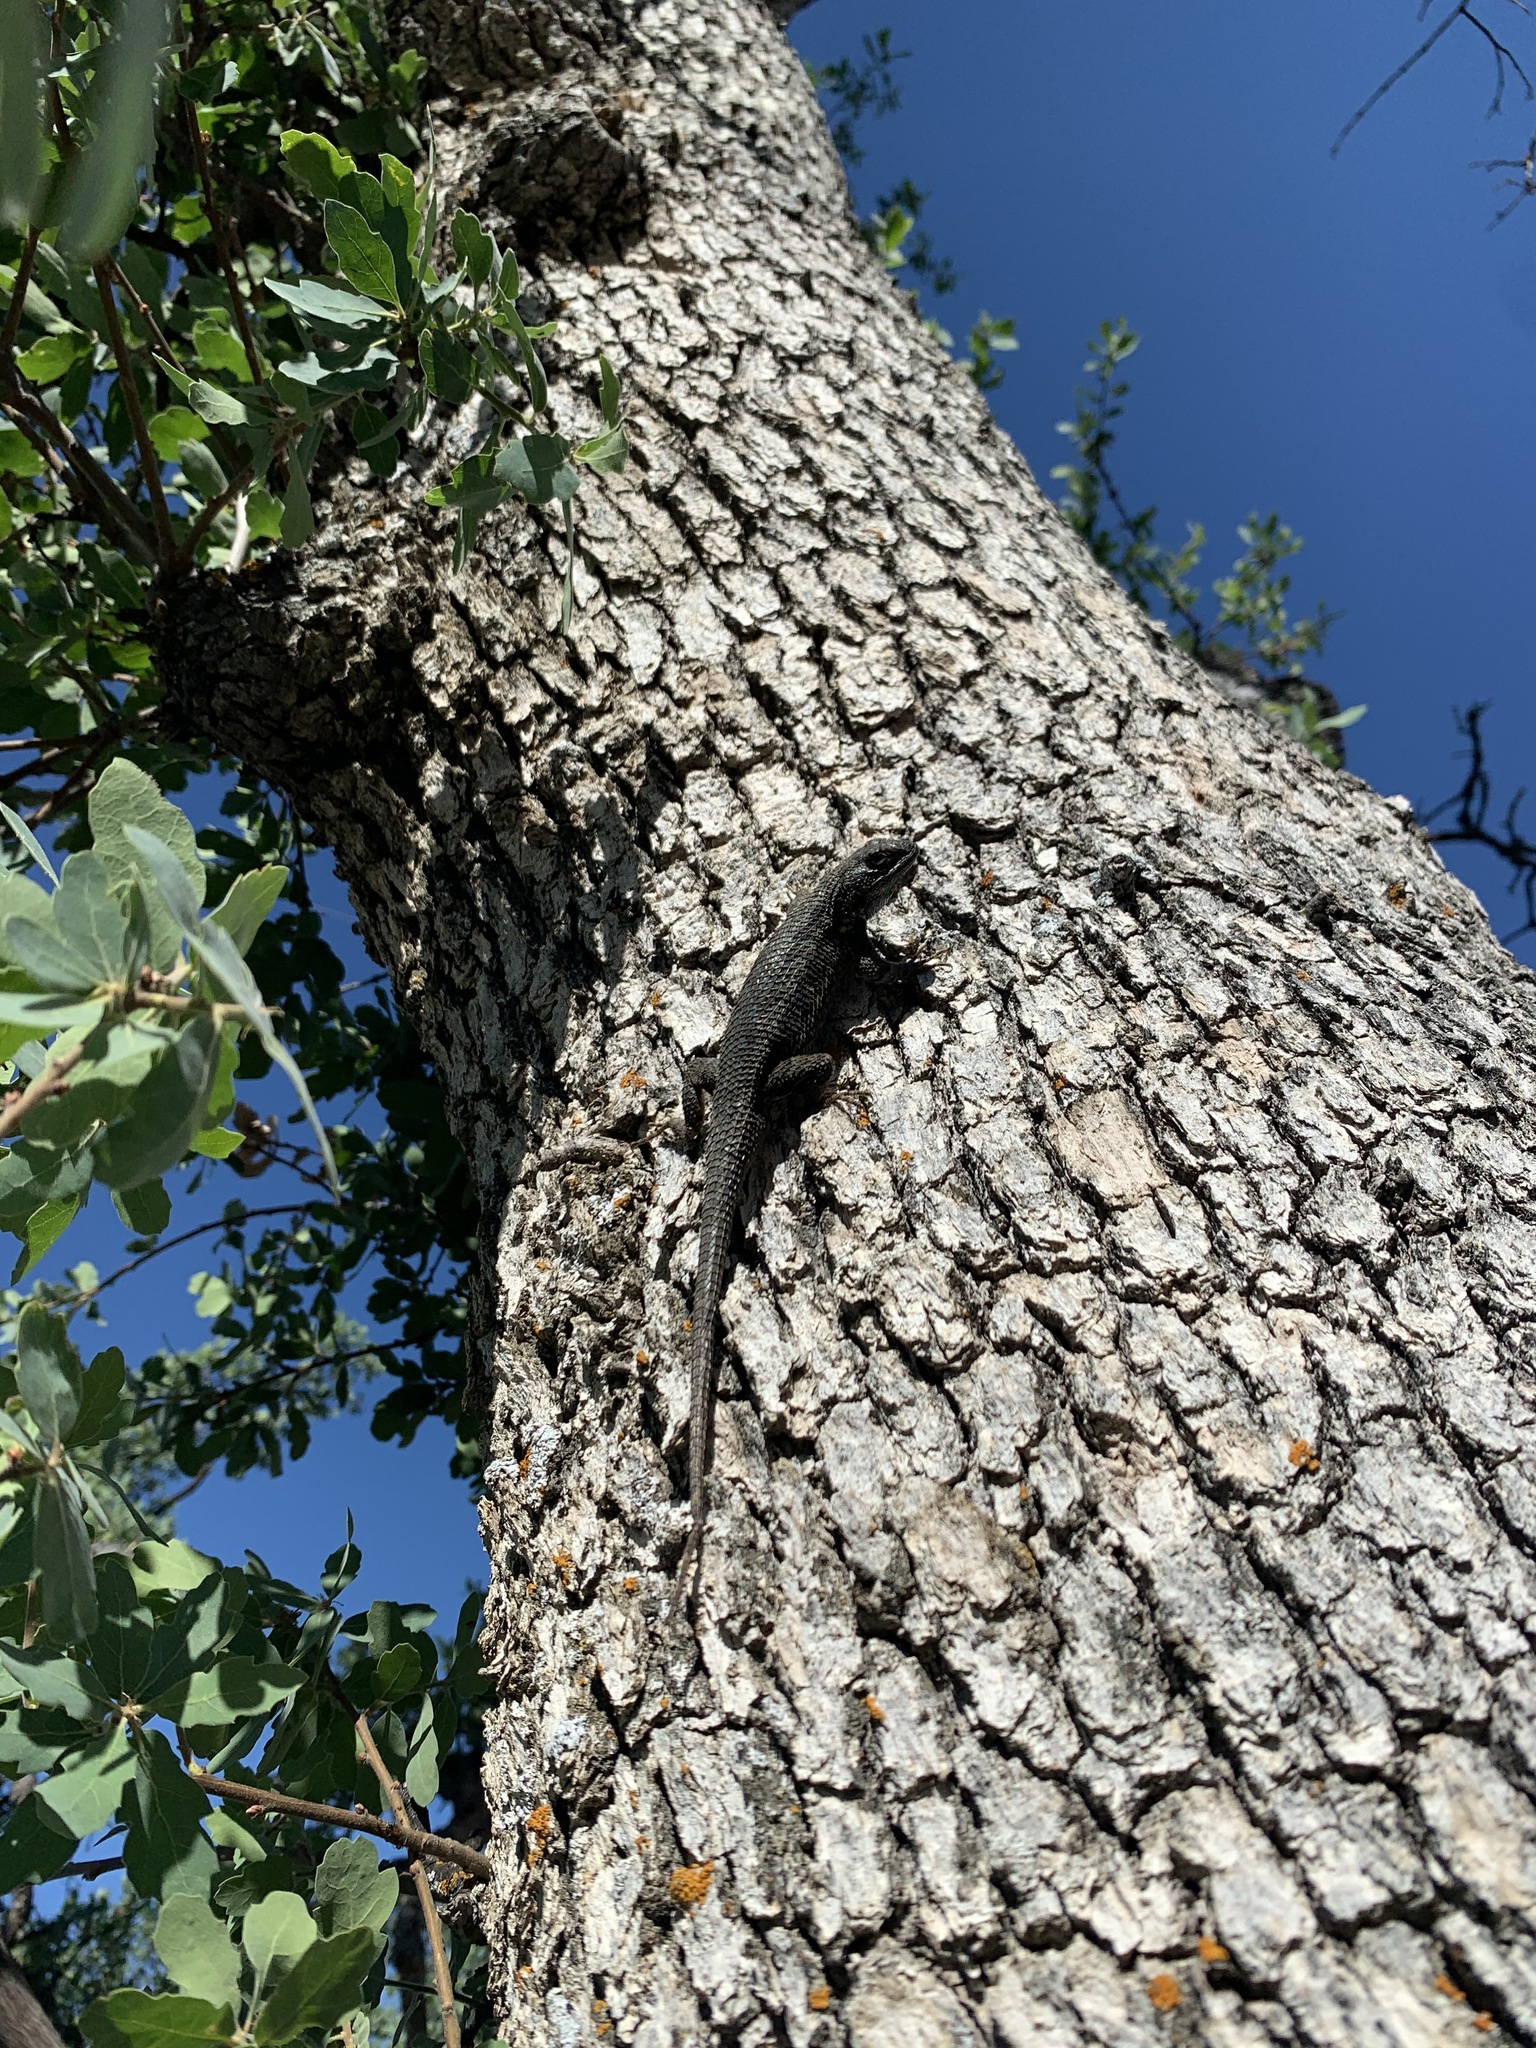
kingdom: Animalia
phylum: Chordata
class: Squamata
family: Phrynosomatidae
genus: Sceloporus
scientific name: Sceloporus occidentalis
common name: Western fence lizard
